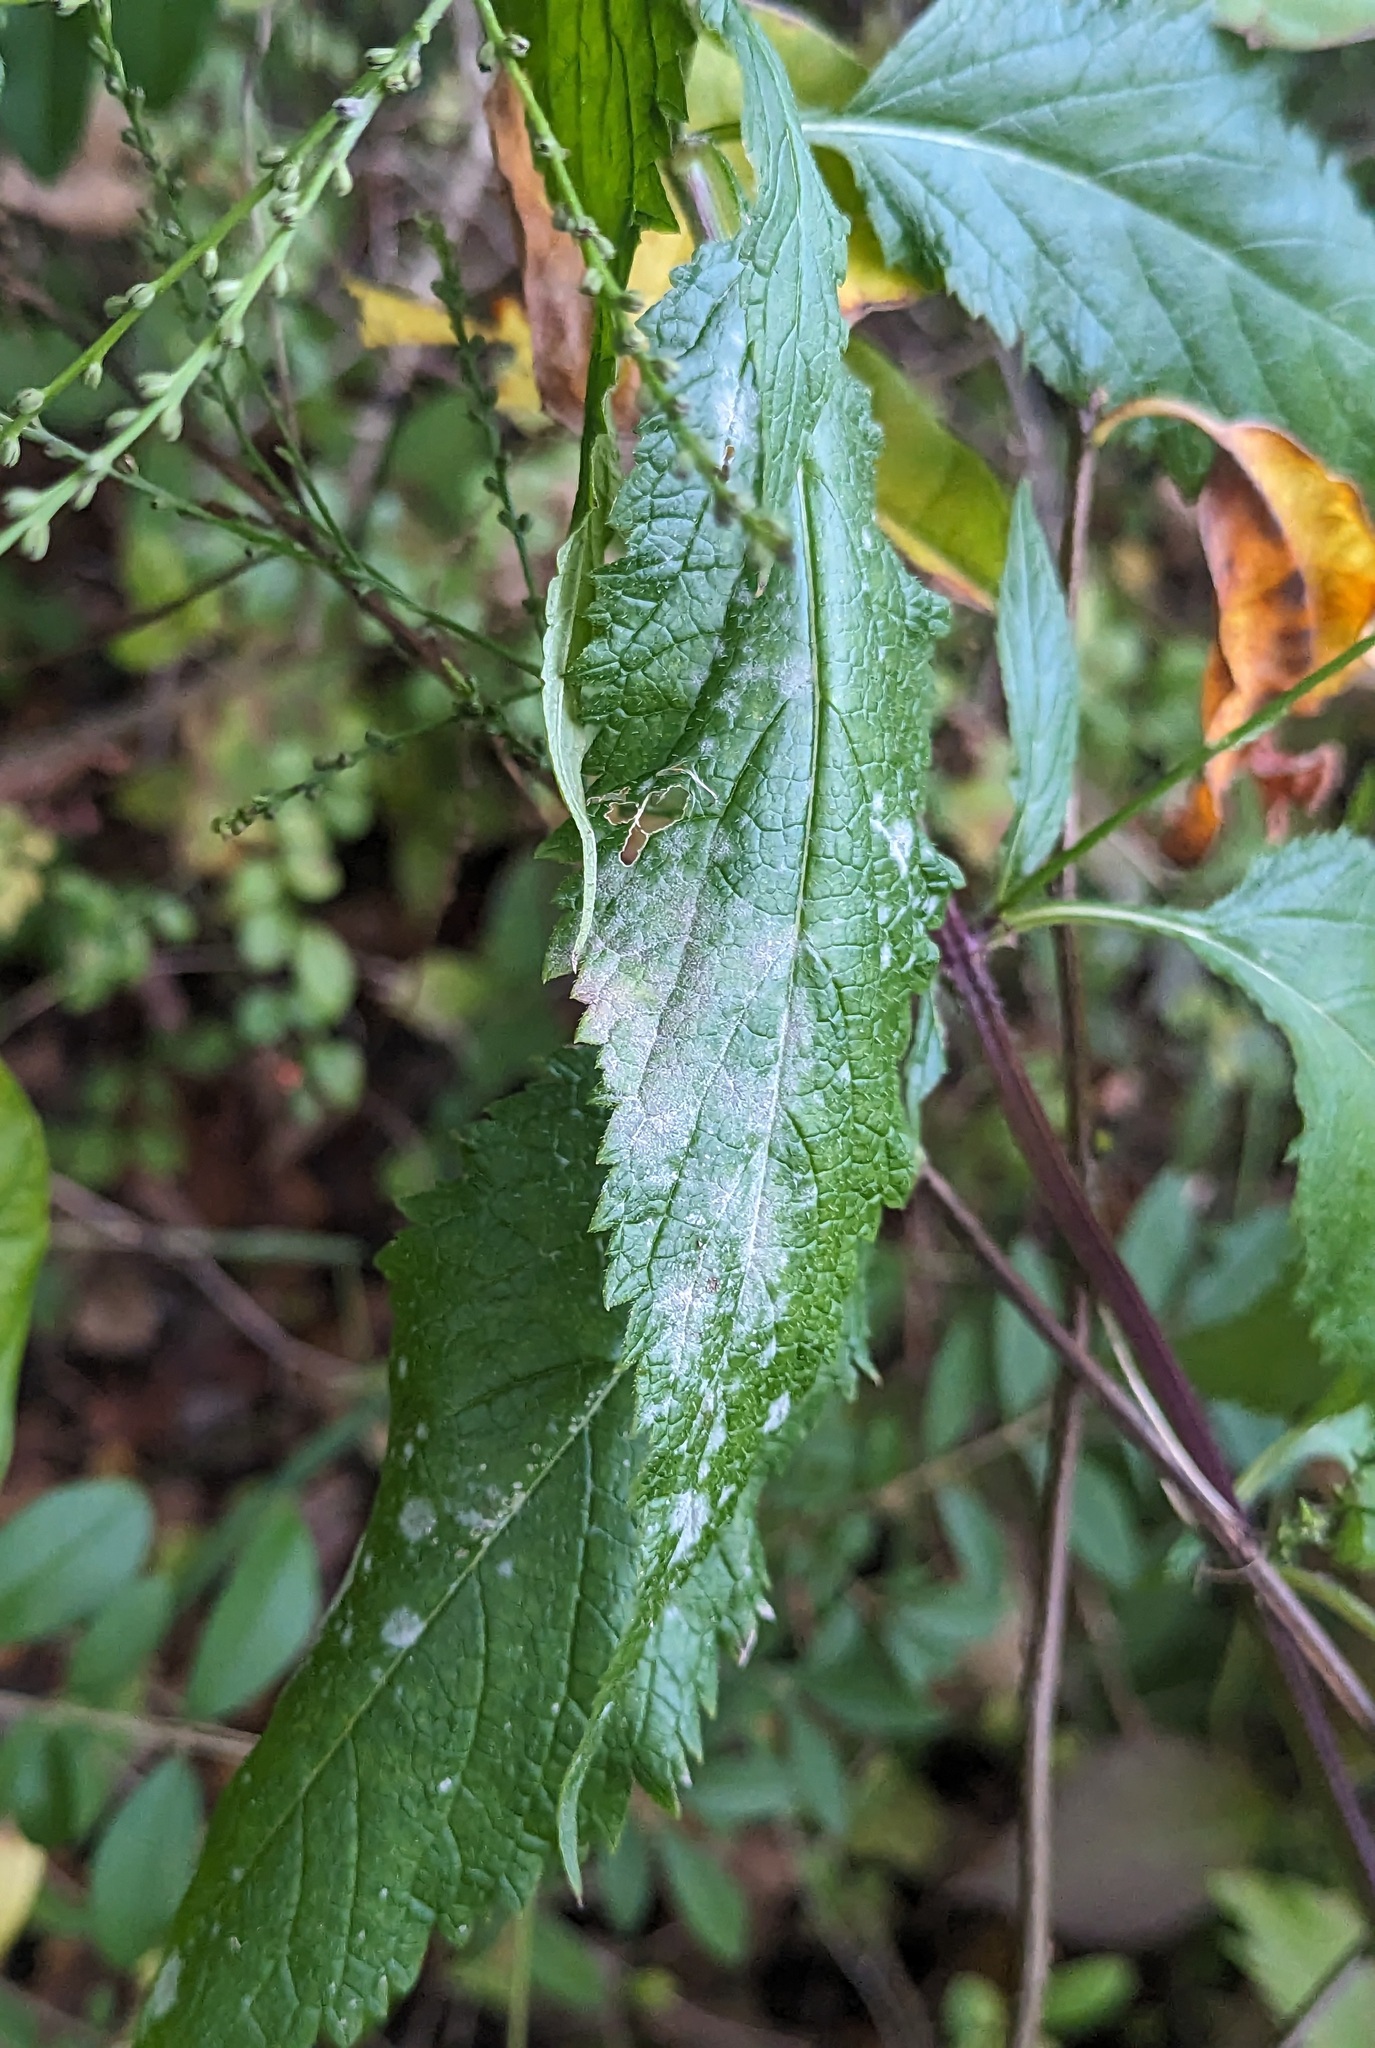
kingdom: Fungi
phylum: Ascomycota
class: Leotiomycetes
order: Helotiales
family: Erysiphaceae
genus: Golovinomyces
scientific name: Golovinomyces verbenae
